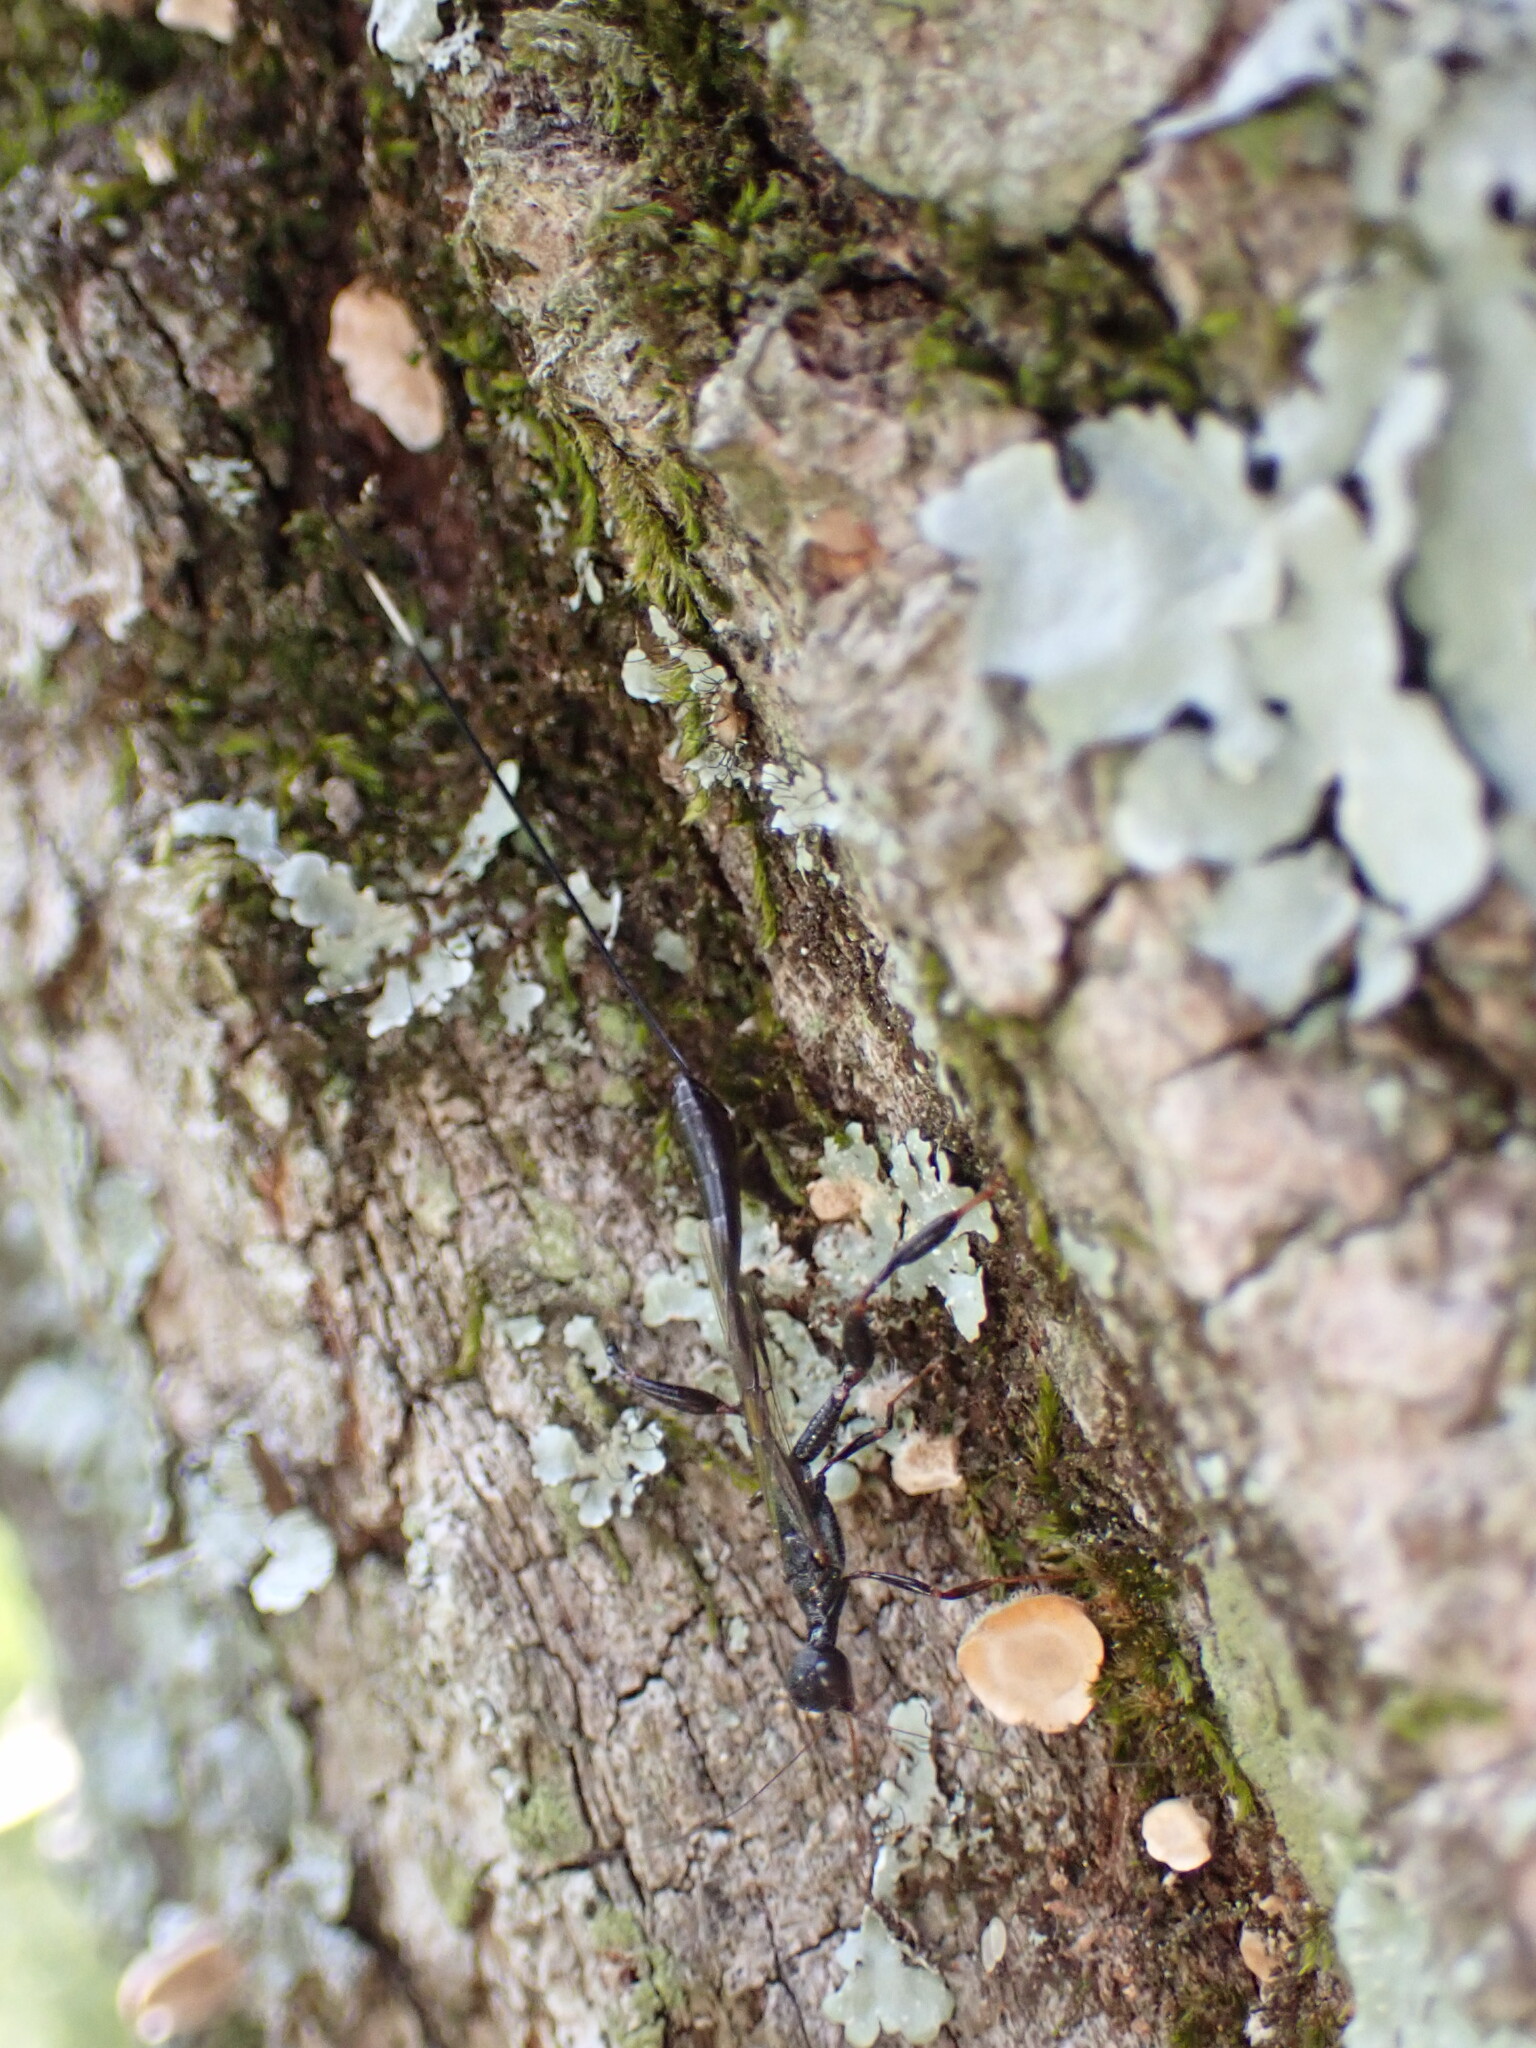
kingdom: Animalia
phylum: Arthropoda
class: Insecta
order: Hymenoptera
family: Stephanidae
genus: Megischus
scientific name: Megischus
